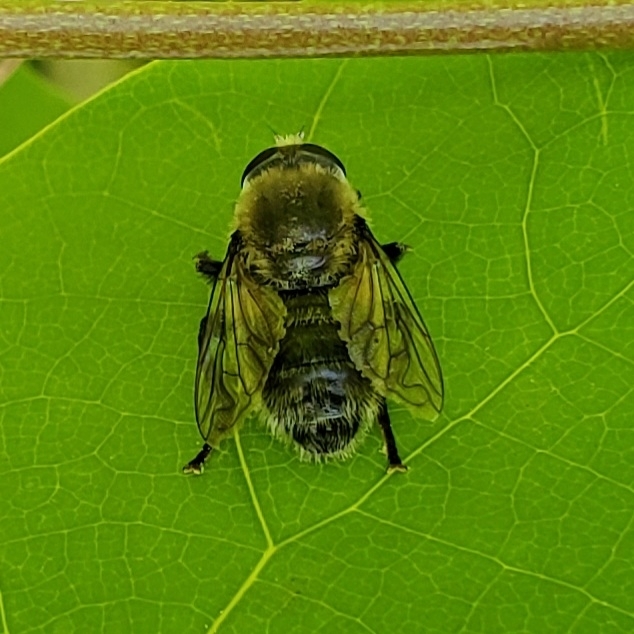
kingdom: Animalia
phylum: Arthropoda
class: Insecta
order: Diptera
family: Syrphidae
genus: Merodon
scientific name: Merodon equestris
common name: Greater bulb-fly
